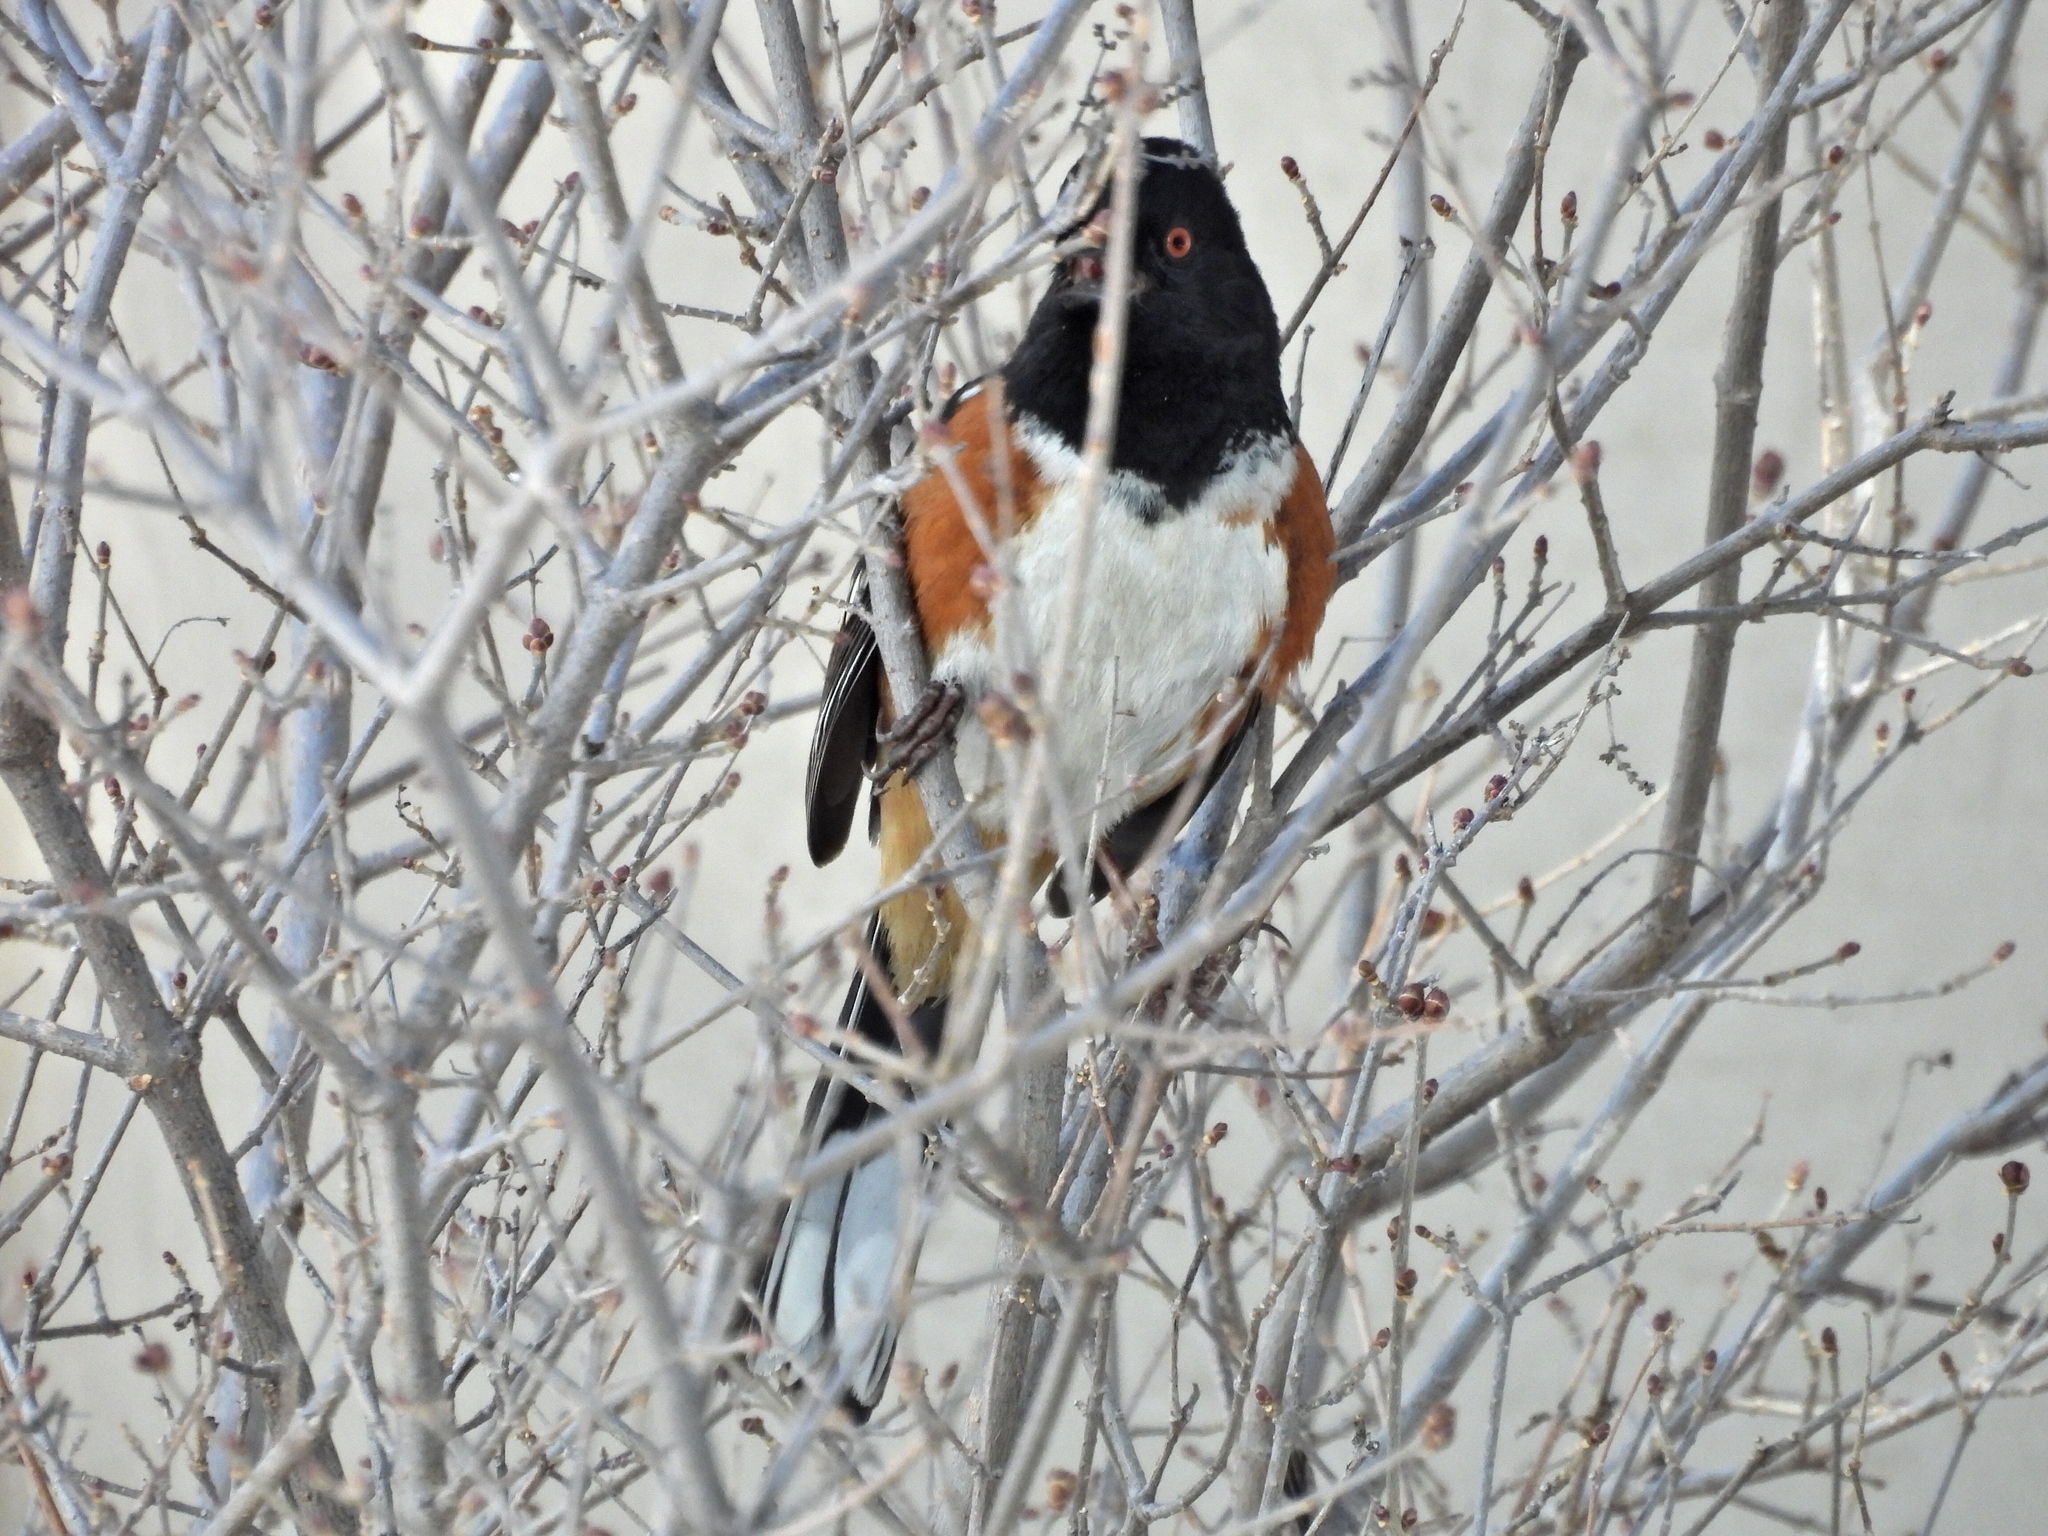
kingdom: Animalia
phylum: Chordata
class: Aves
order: Passeriformes
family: Passerellidae
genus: Pipilo
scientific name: Pipilo maculatus
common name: Spotted towhee
